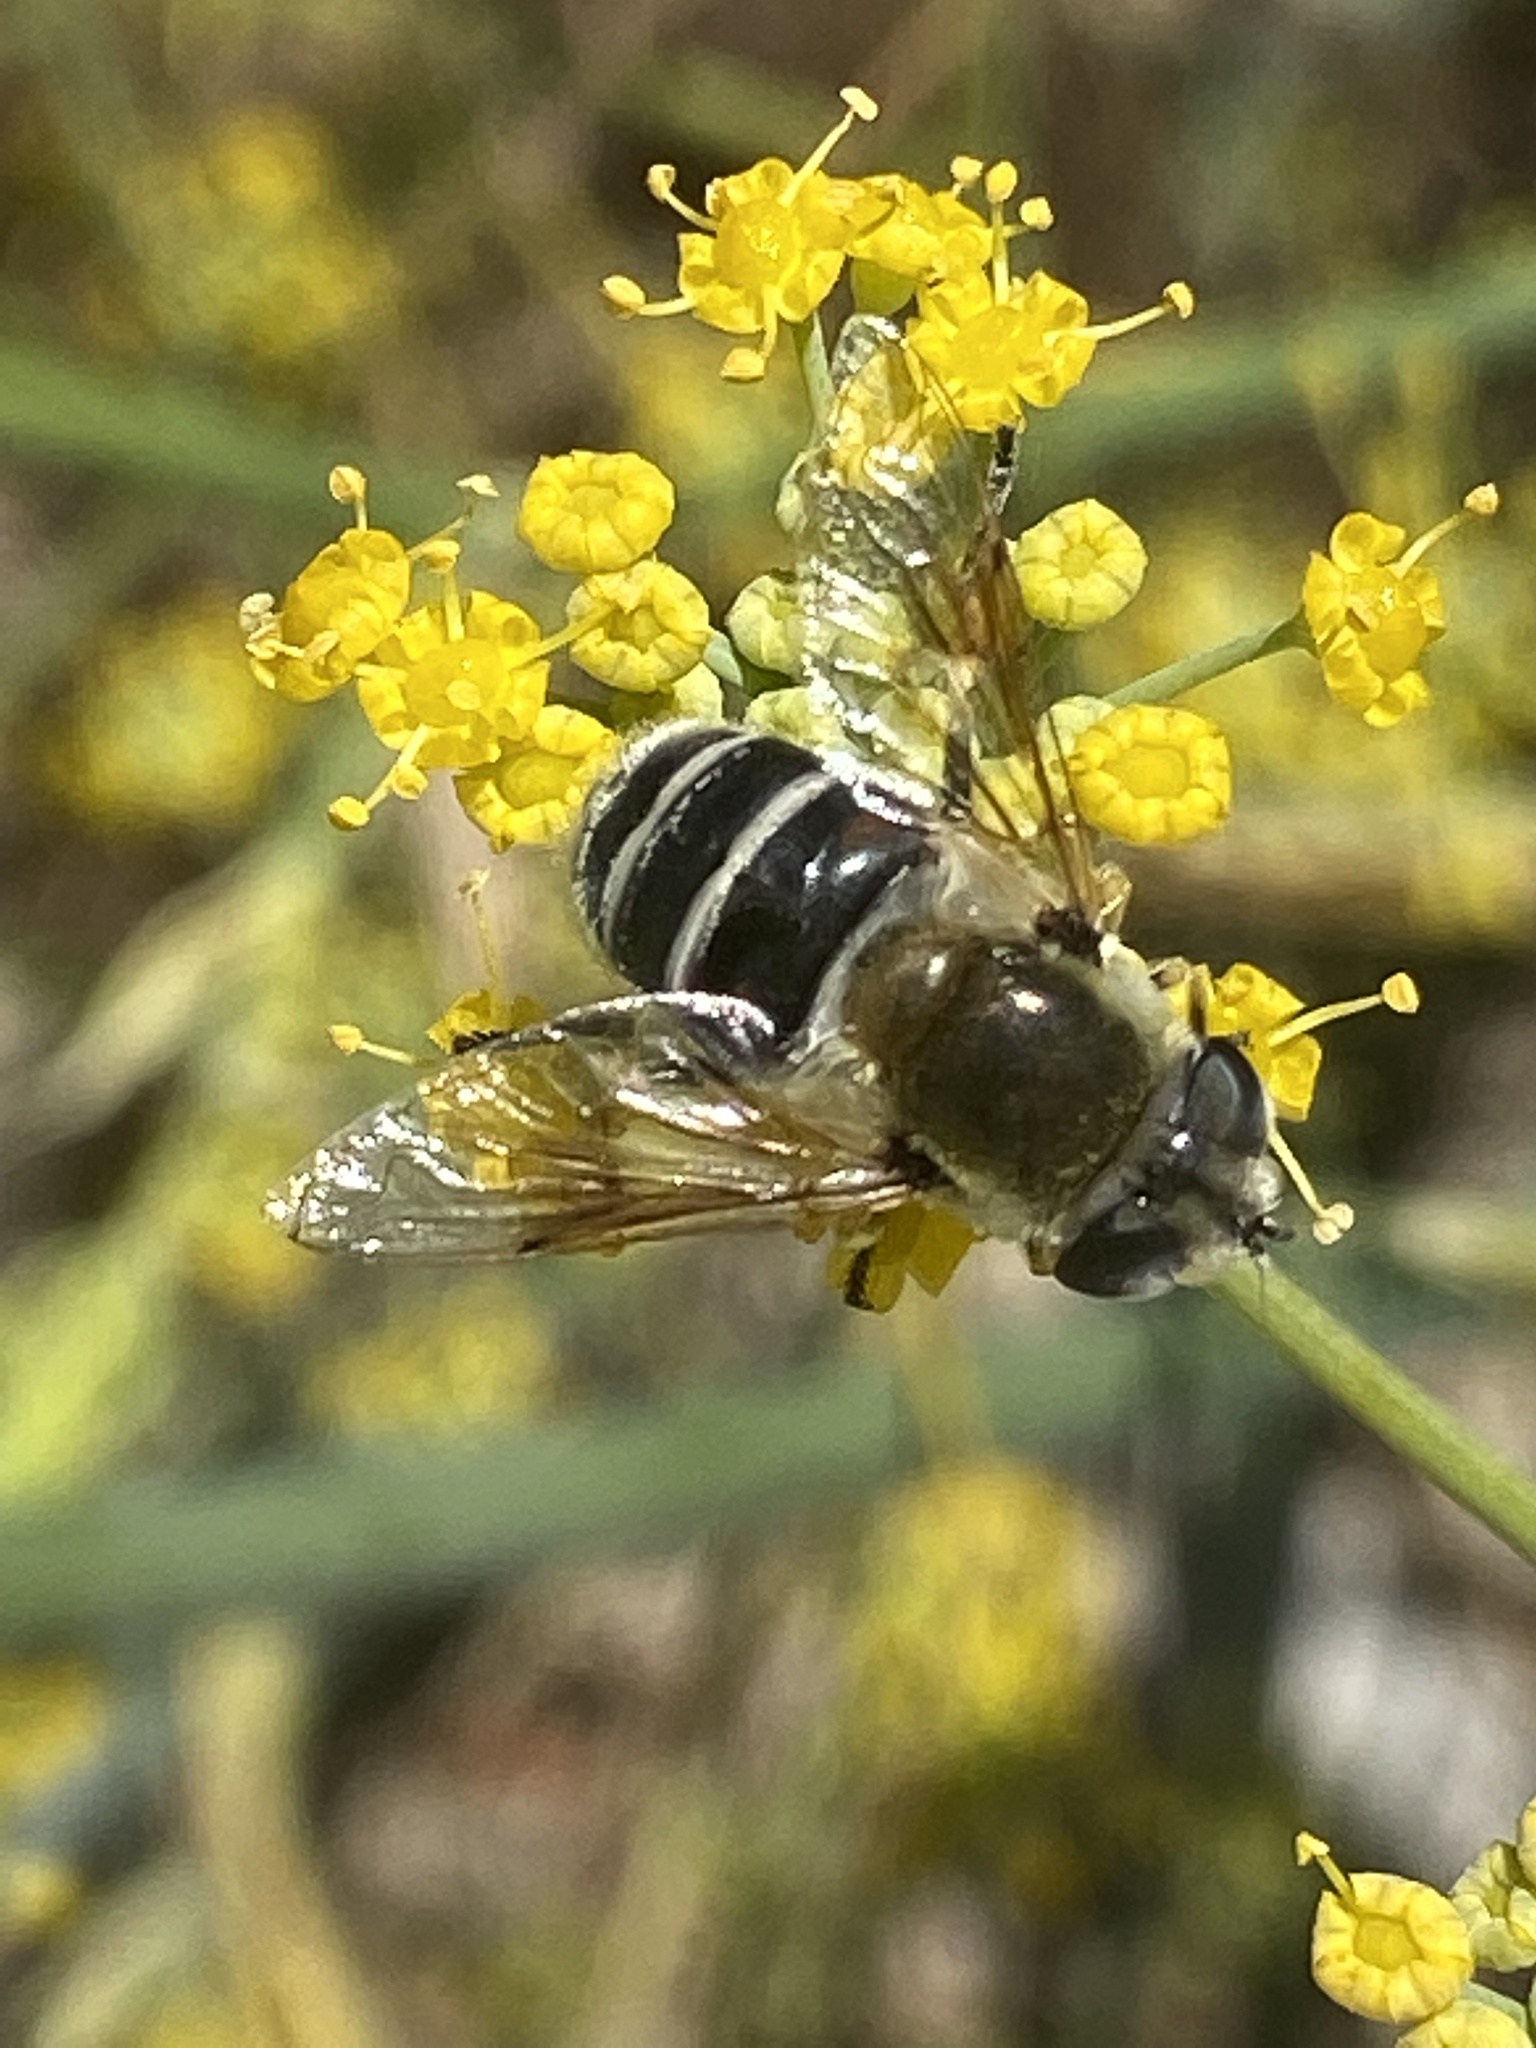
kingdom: Animalia
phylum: Arthropoda
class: Insecta
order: Diptera
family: Syrphidae
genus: Eristalis
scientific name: Eristalis stipator
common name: Yellow-shouldered drone fly
